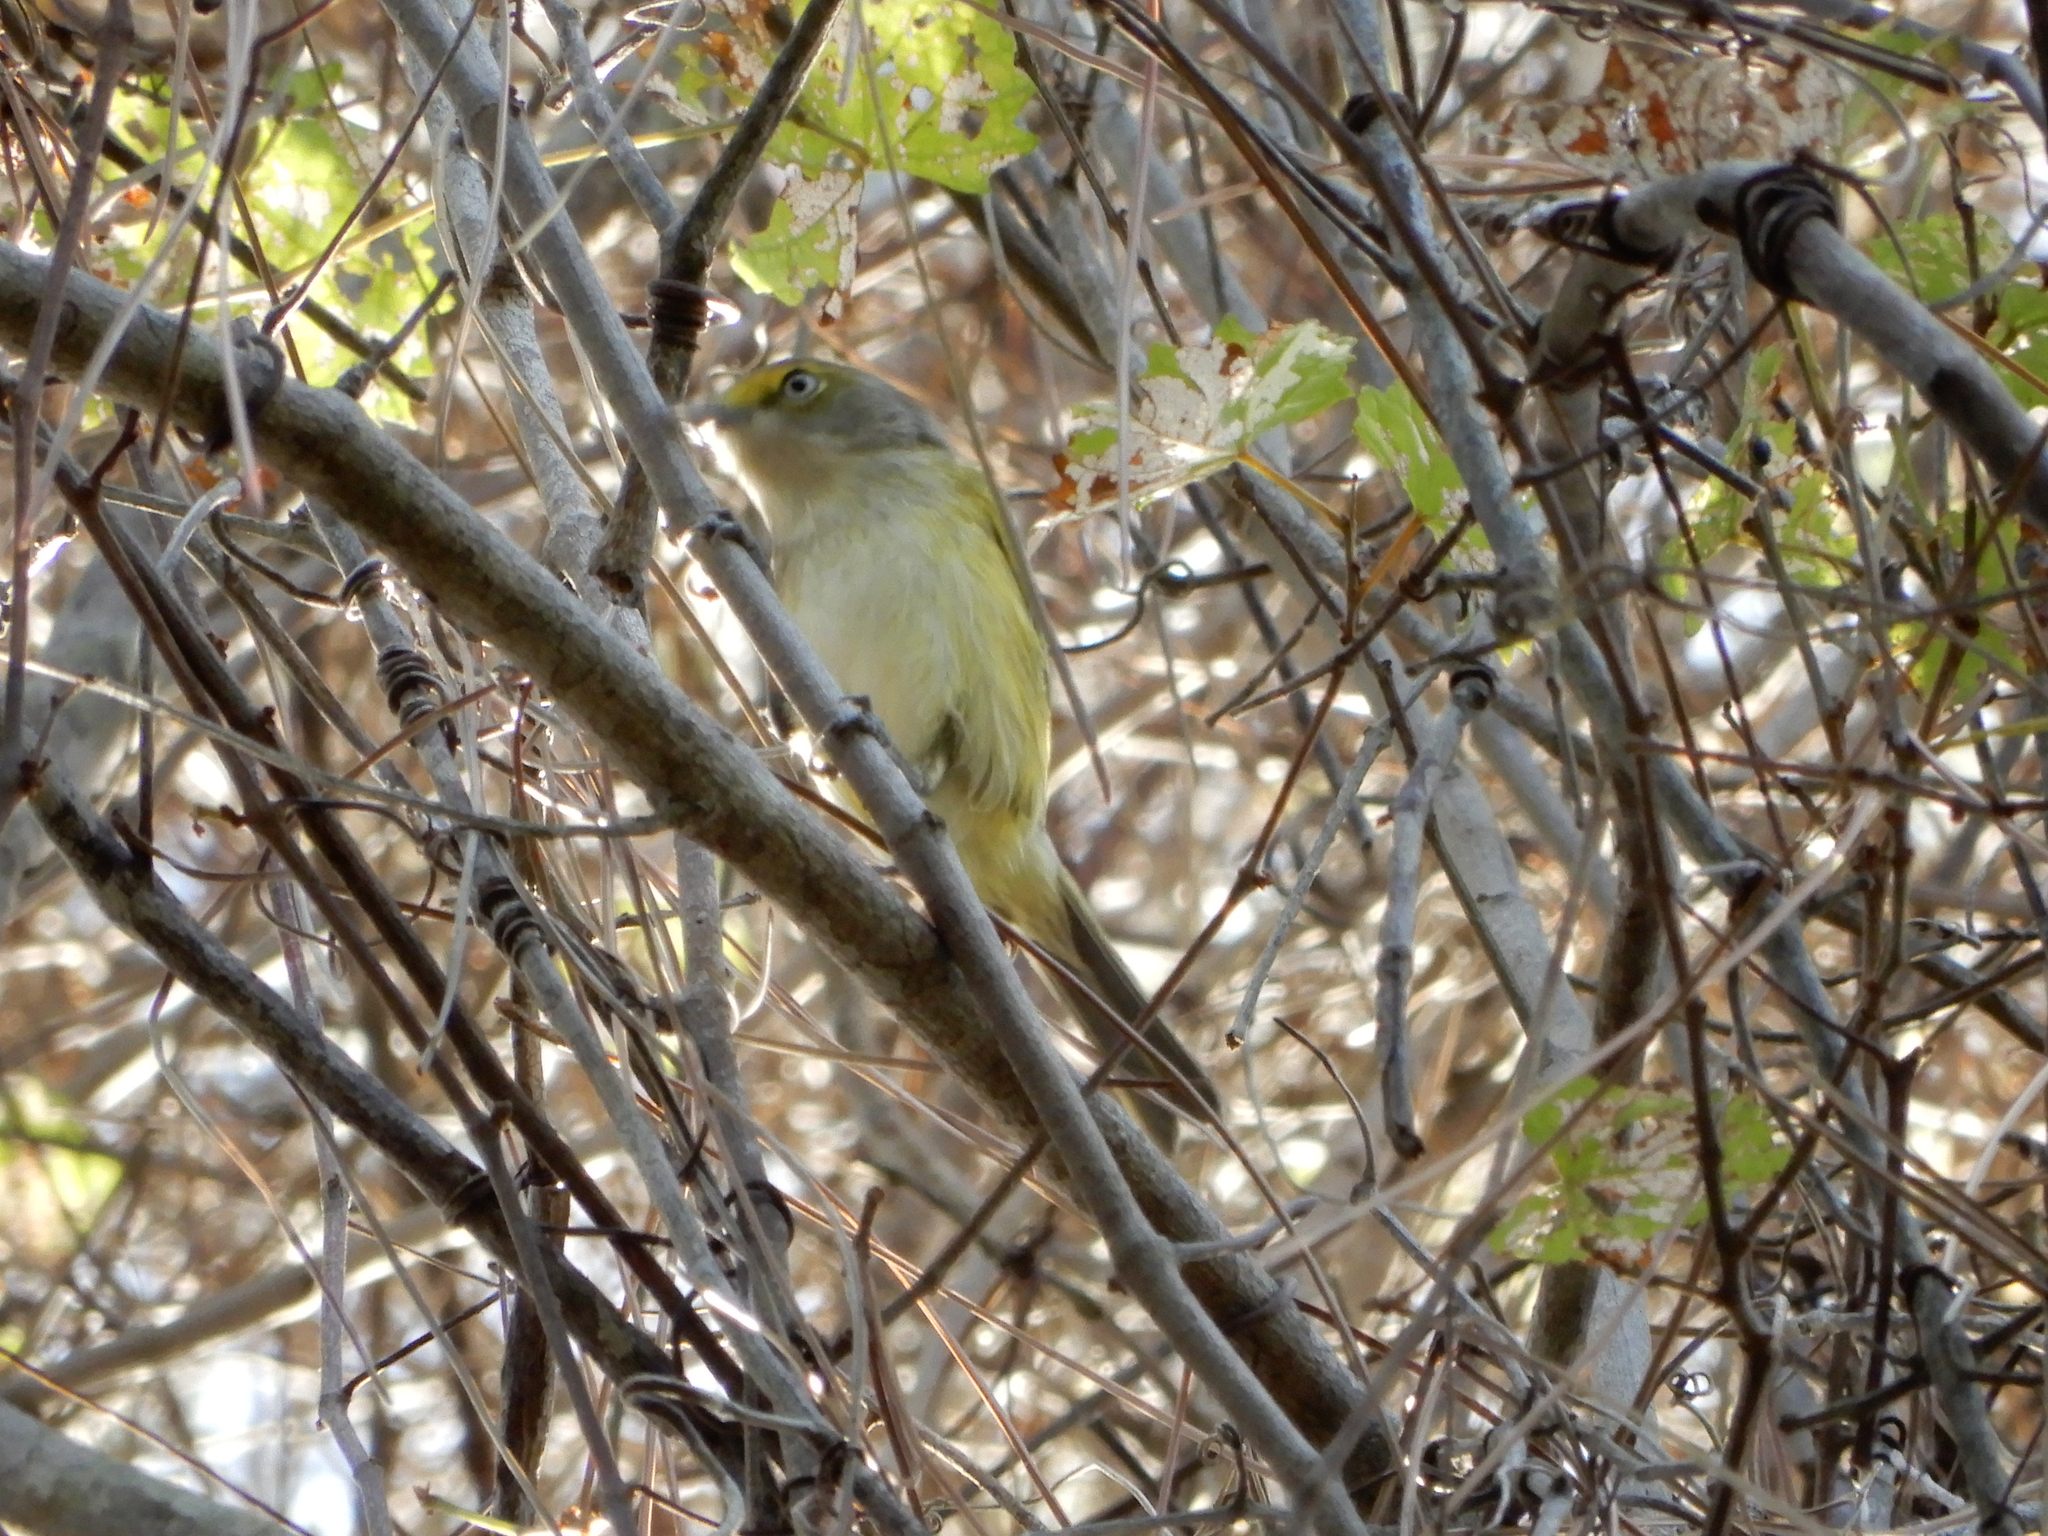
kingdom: Animalia
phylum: Chordata
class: Aves
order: Passeriformes
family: Vireonidae
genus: Vireo
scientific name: Vireo griseus
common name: White-eyed vireo
